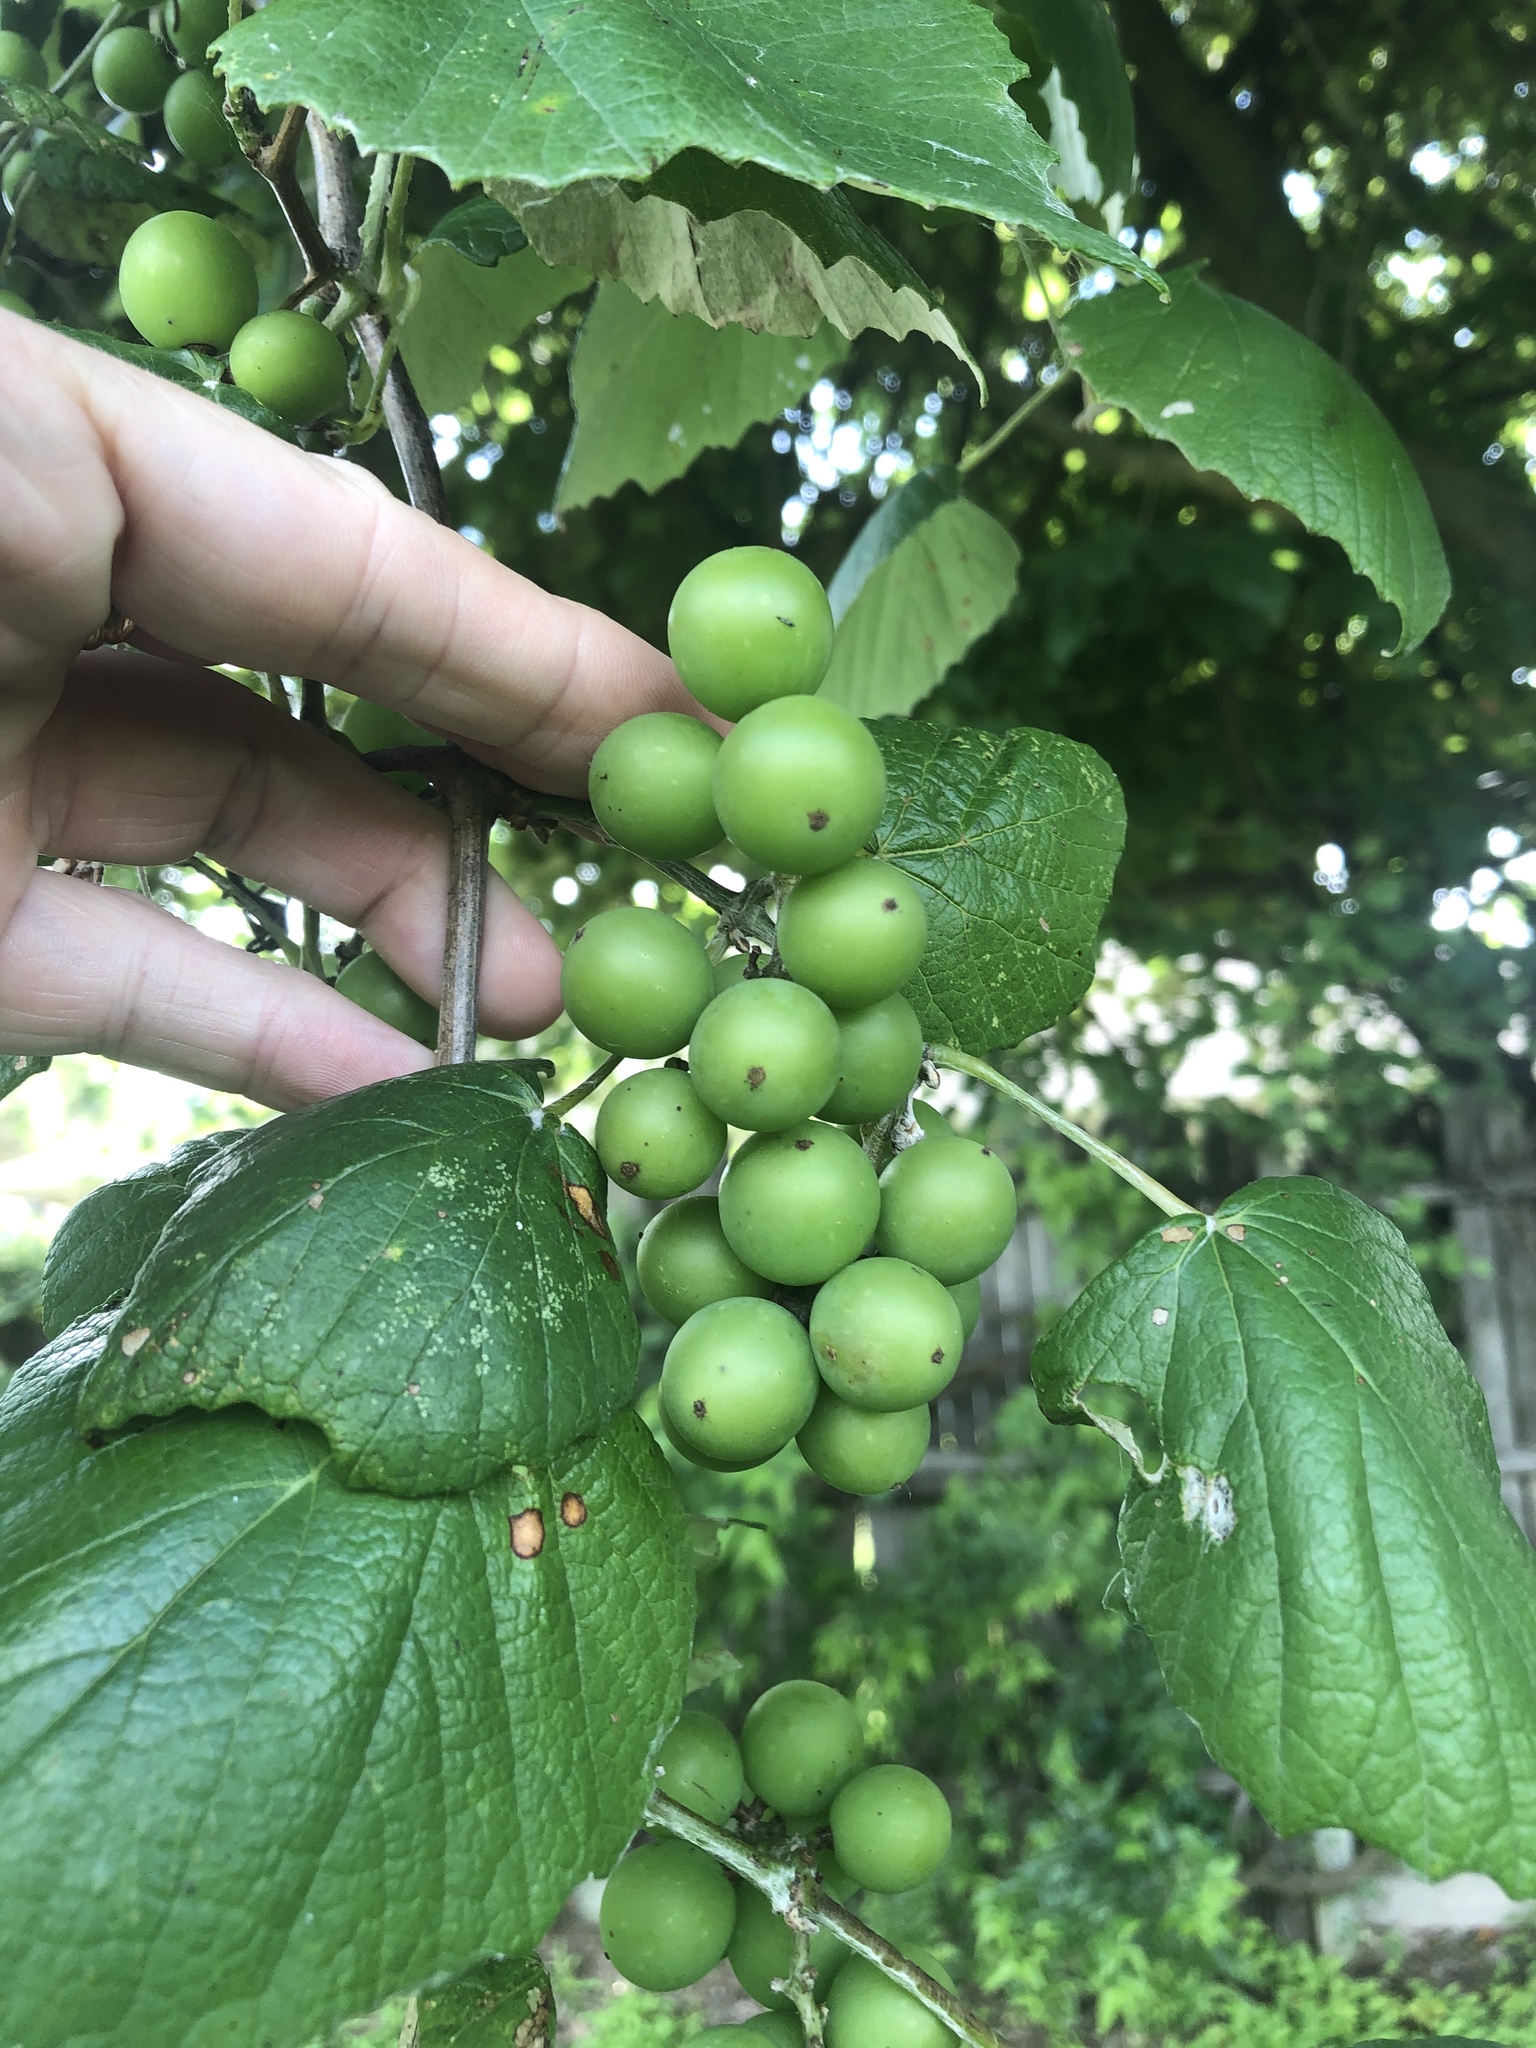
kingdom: Plantae
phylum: Tracheophyta
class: Magnoliopsida
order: Vitales
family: Vitaceae
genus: Vitis
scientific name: Vitis mustangensis
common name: Mustang grape
